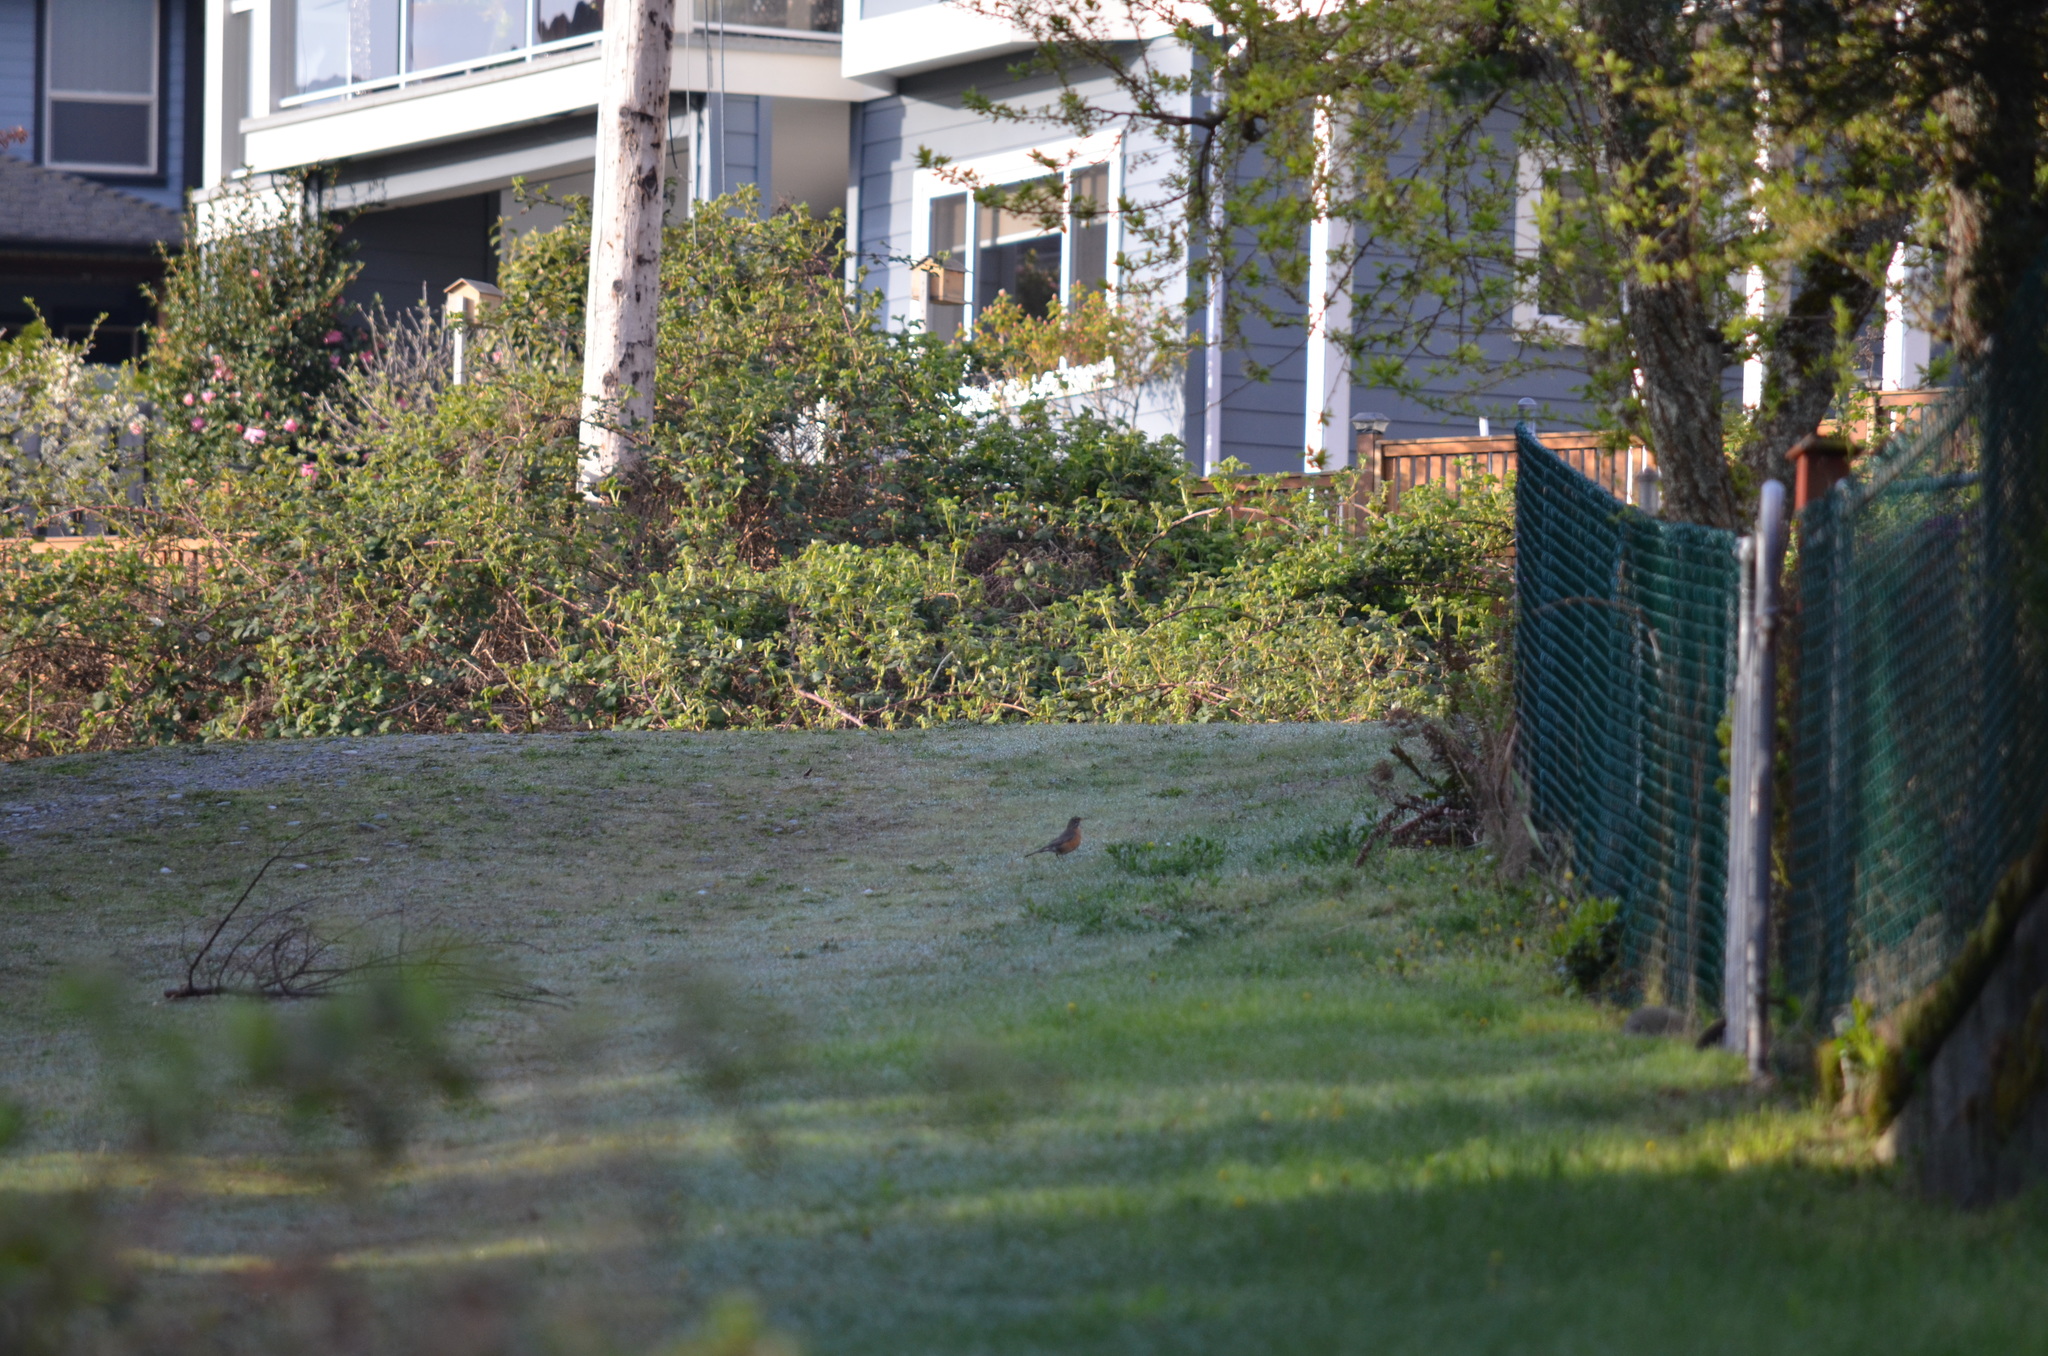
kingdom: Animalia
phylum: Chordata
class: Aves
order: Passeriformes
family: Turdidae
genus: Turdus
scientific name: Turdus migratorius
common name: American robin
